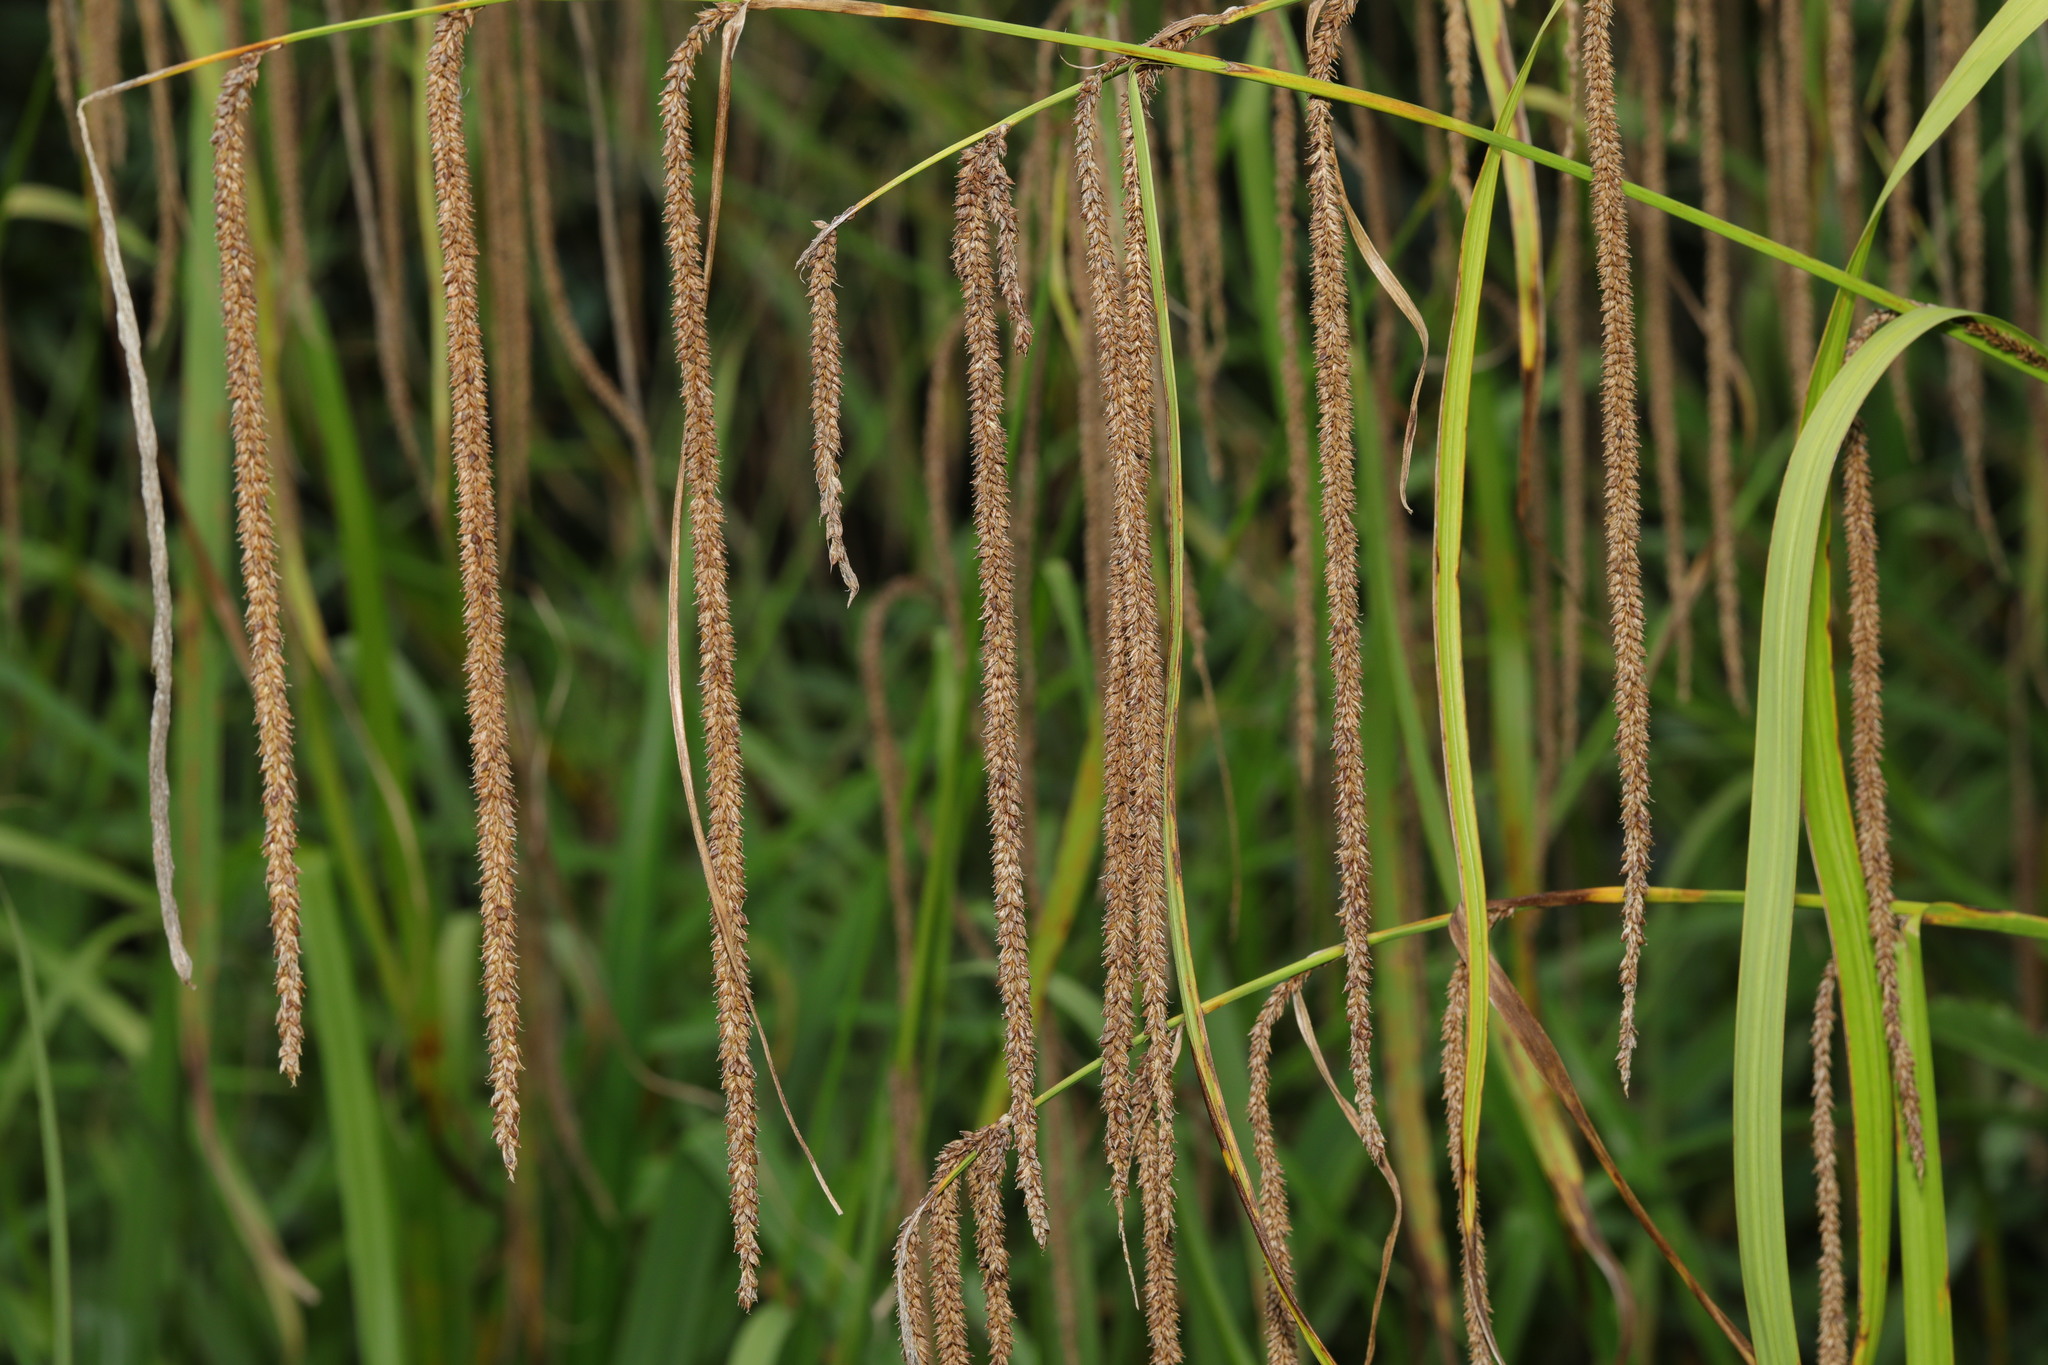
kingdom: Plantae
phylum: Tracheophyta
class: Liliopsida
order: Poales
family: Cyperaceae
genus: Carex
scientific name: Carex pendula
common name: Pendulous sedge
